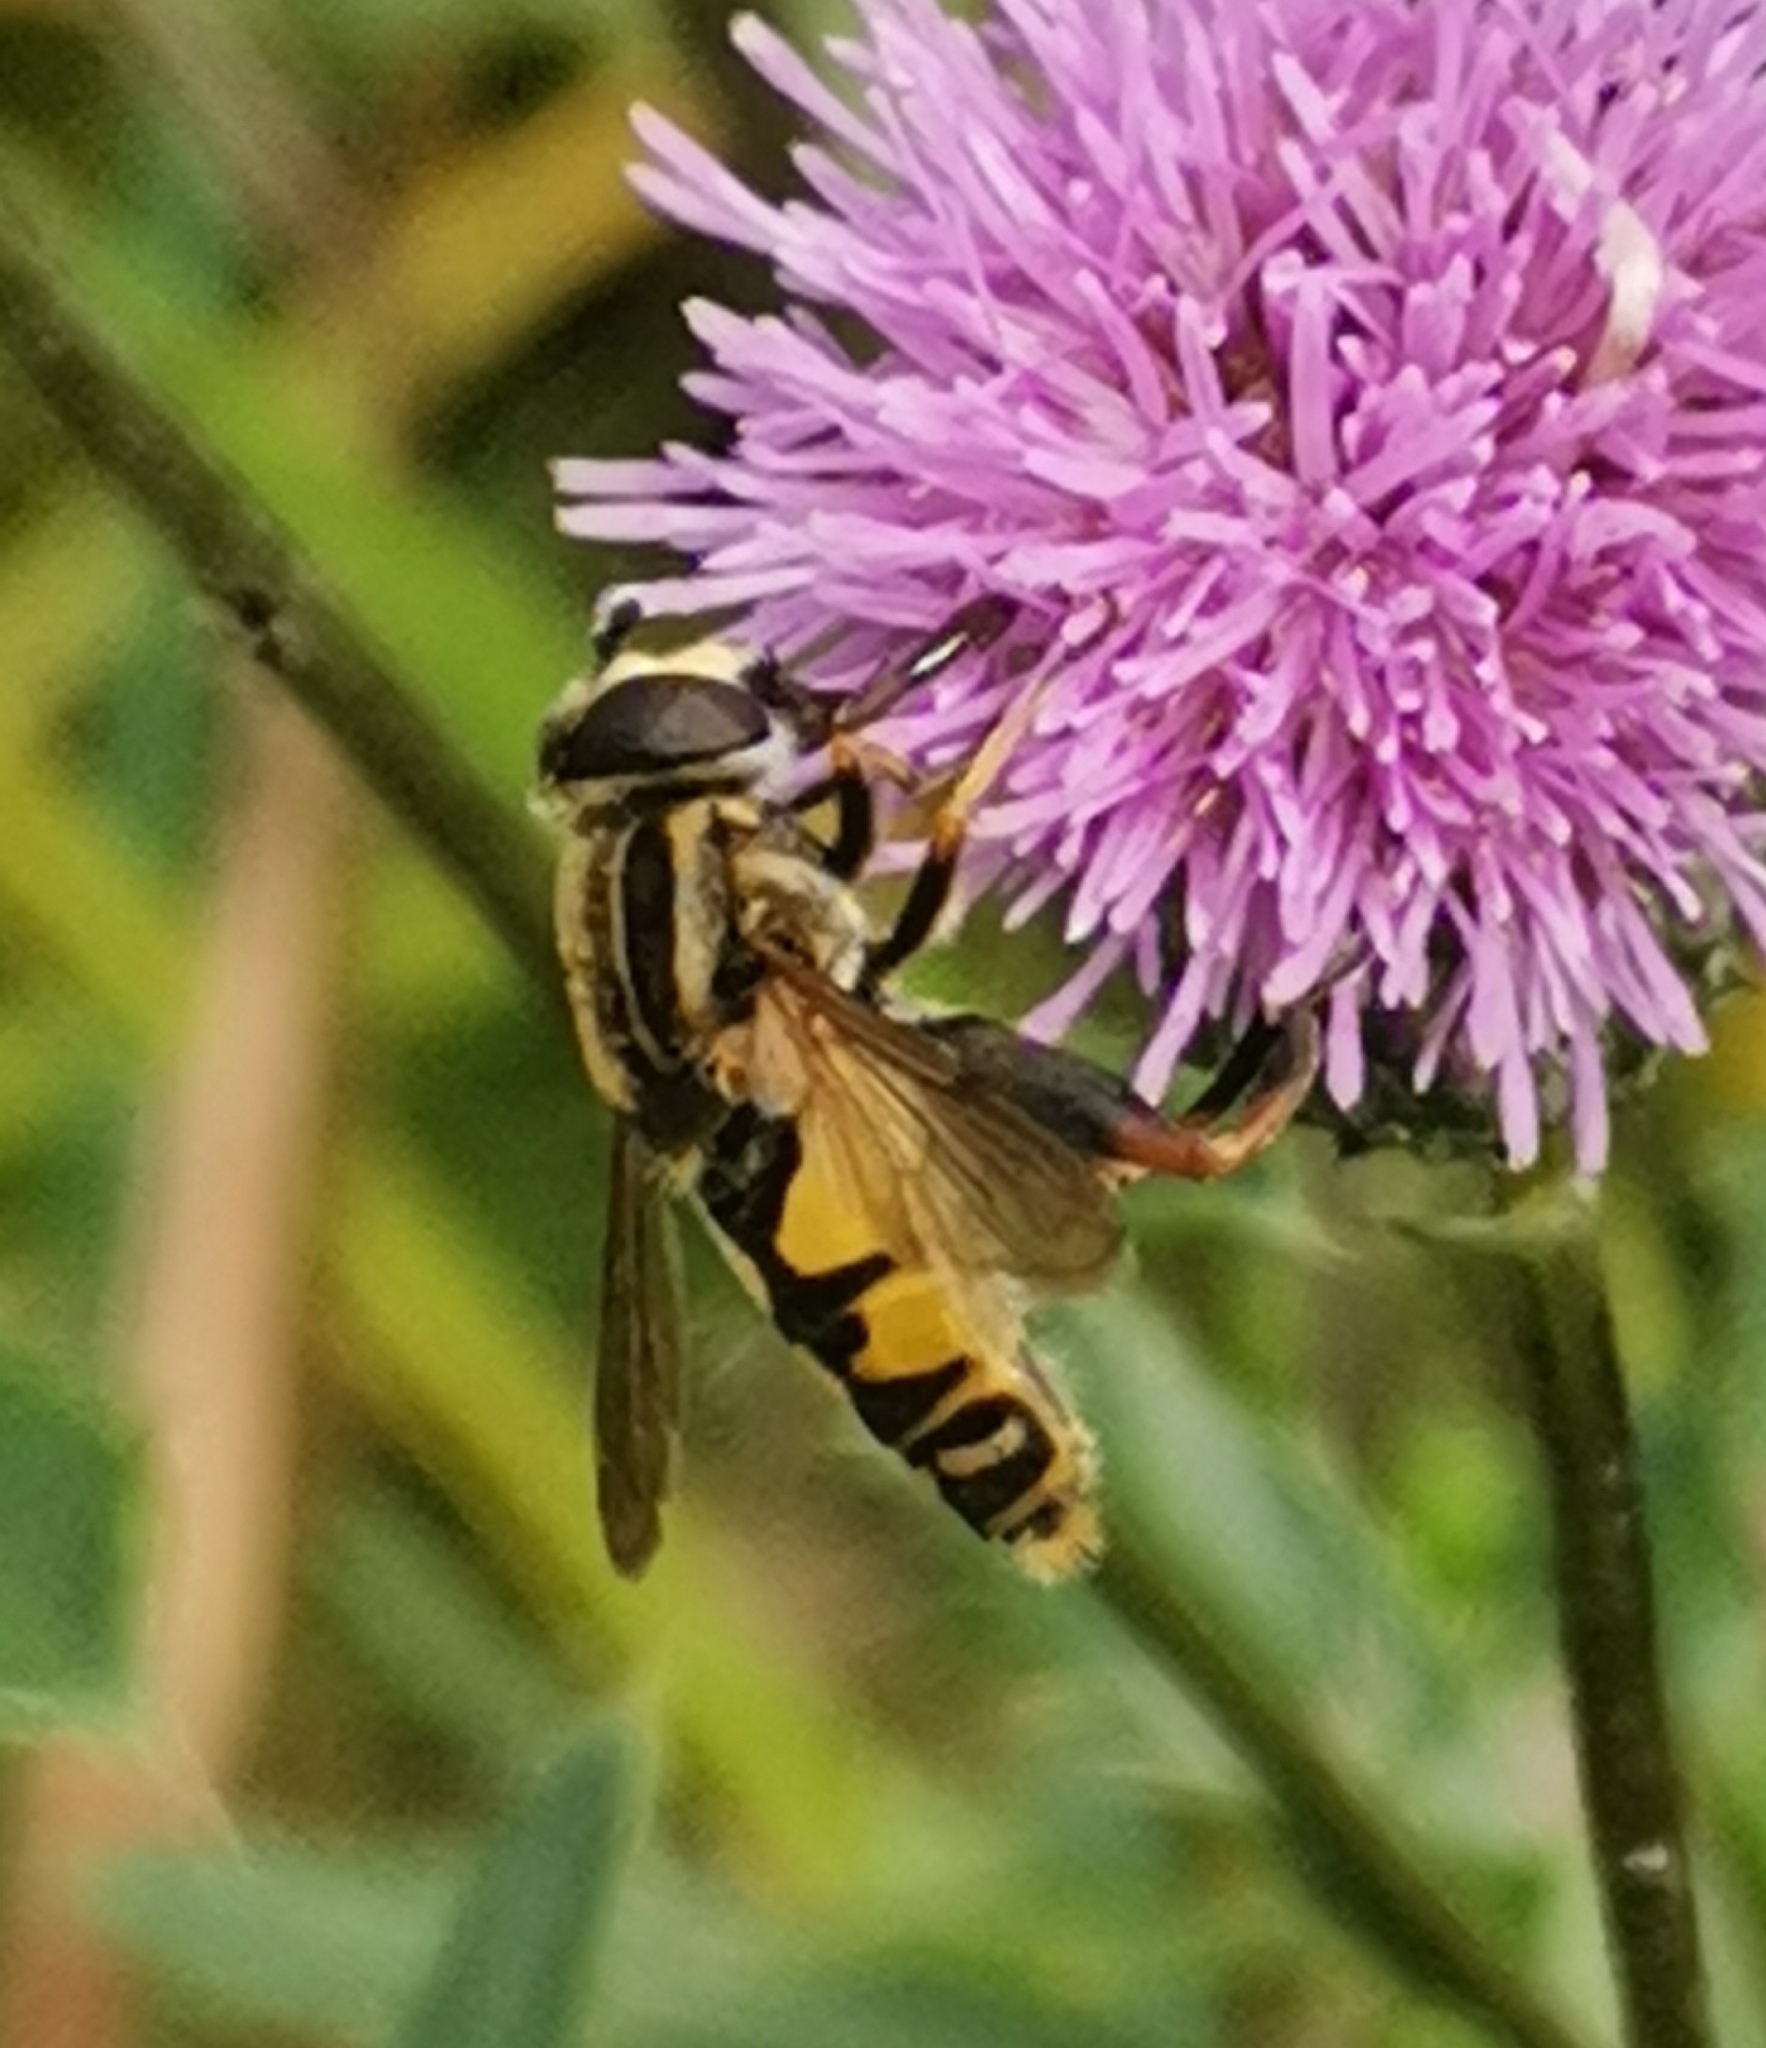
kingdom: Animalia
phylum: Arthropoda
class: Insecta
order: Diptera
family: Syrphidae
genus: Helophilus
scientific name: Helophilus pendulus
